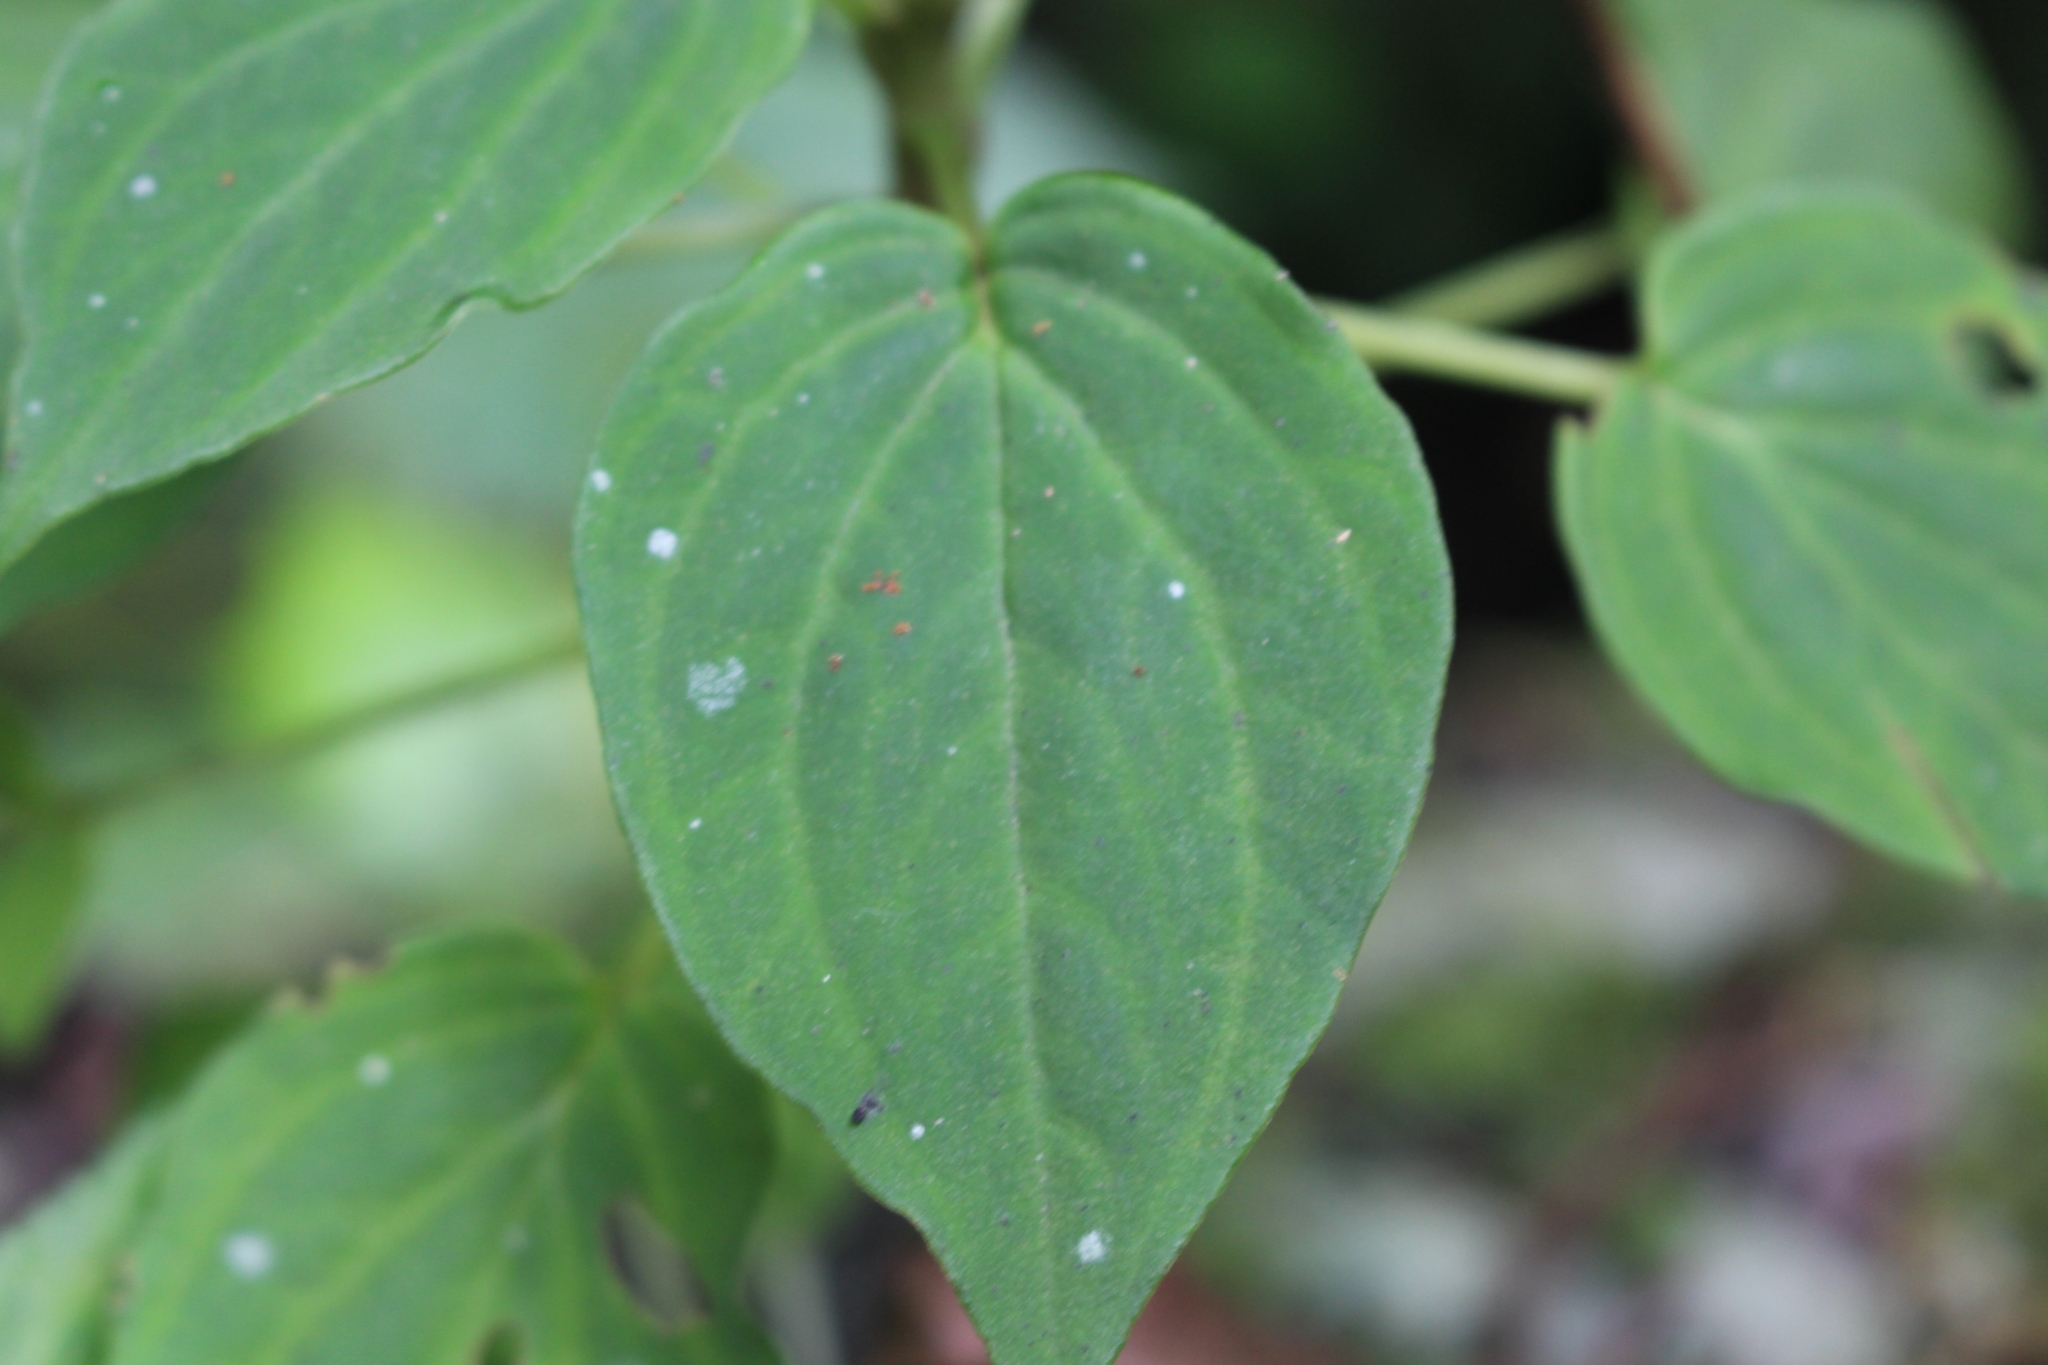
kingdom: Plantae
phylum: Tracheophyta
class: Magnoliopsida
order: Piperales
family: Piperaceae
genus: Peperomia
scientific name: Peperomia lignescens
